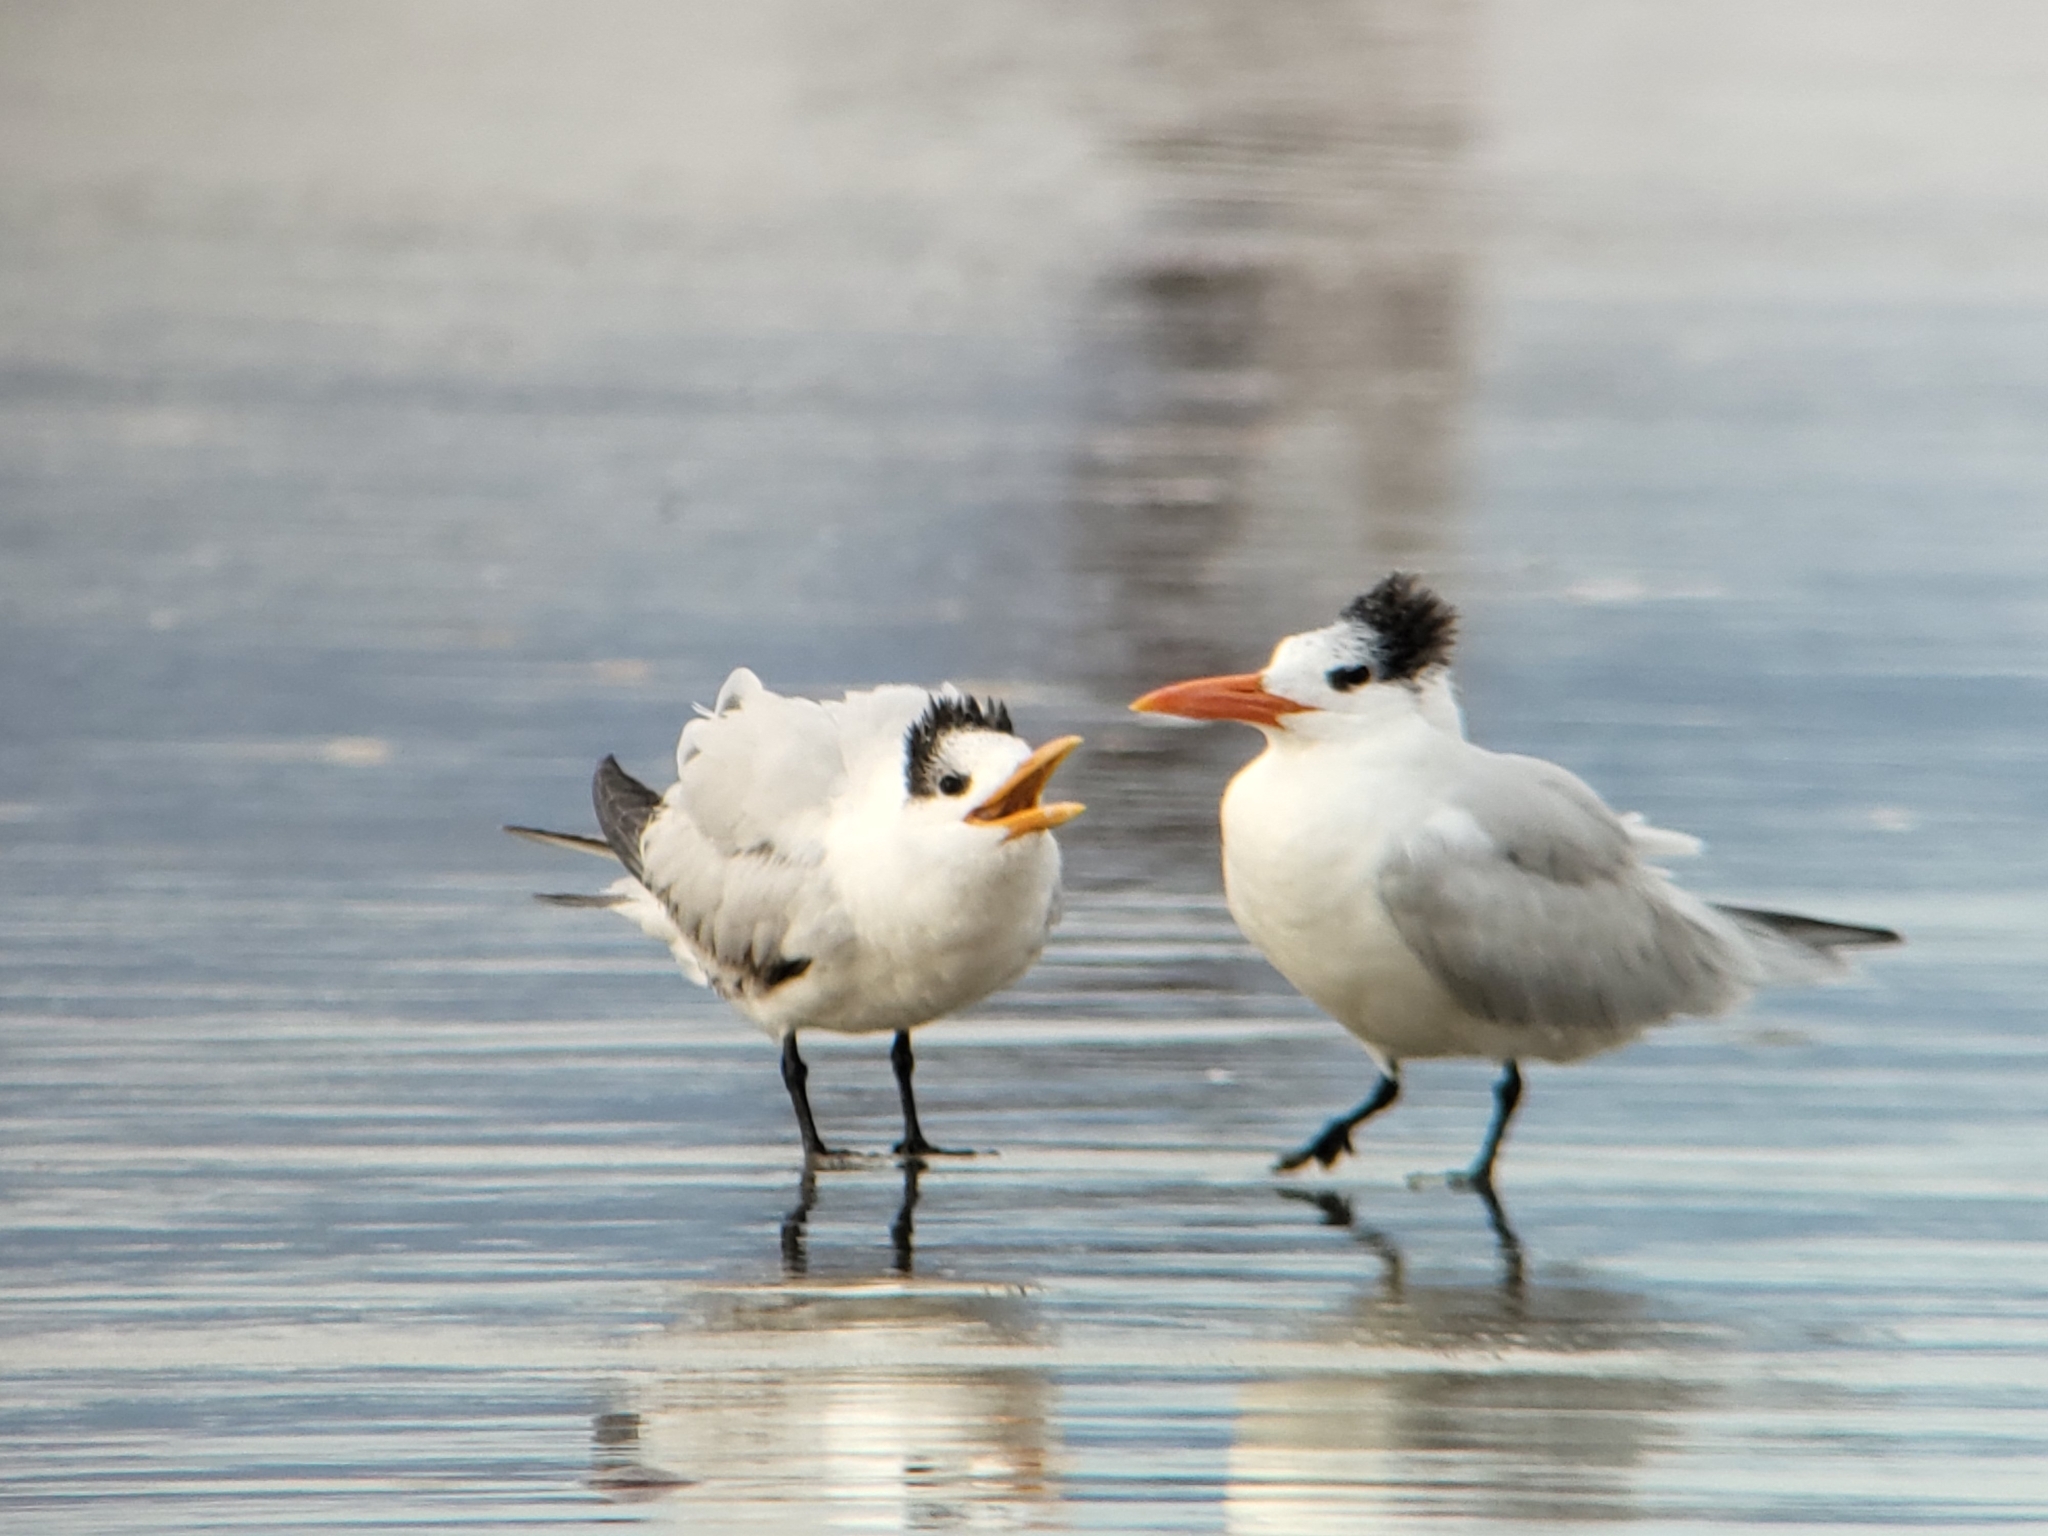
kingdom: Animalia
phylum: Chordata
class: Aves
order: Charadriiformes
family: Laridae
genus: Thalasseus
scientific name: Thalasseus maximus
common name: Royal tern
